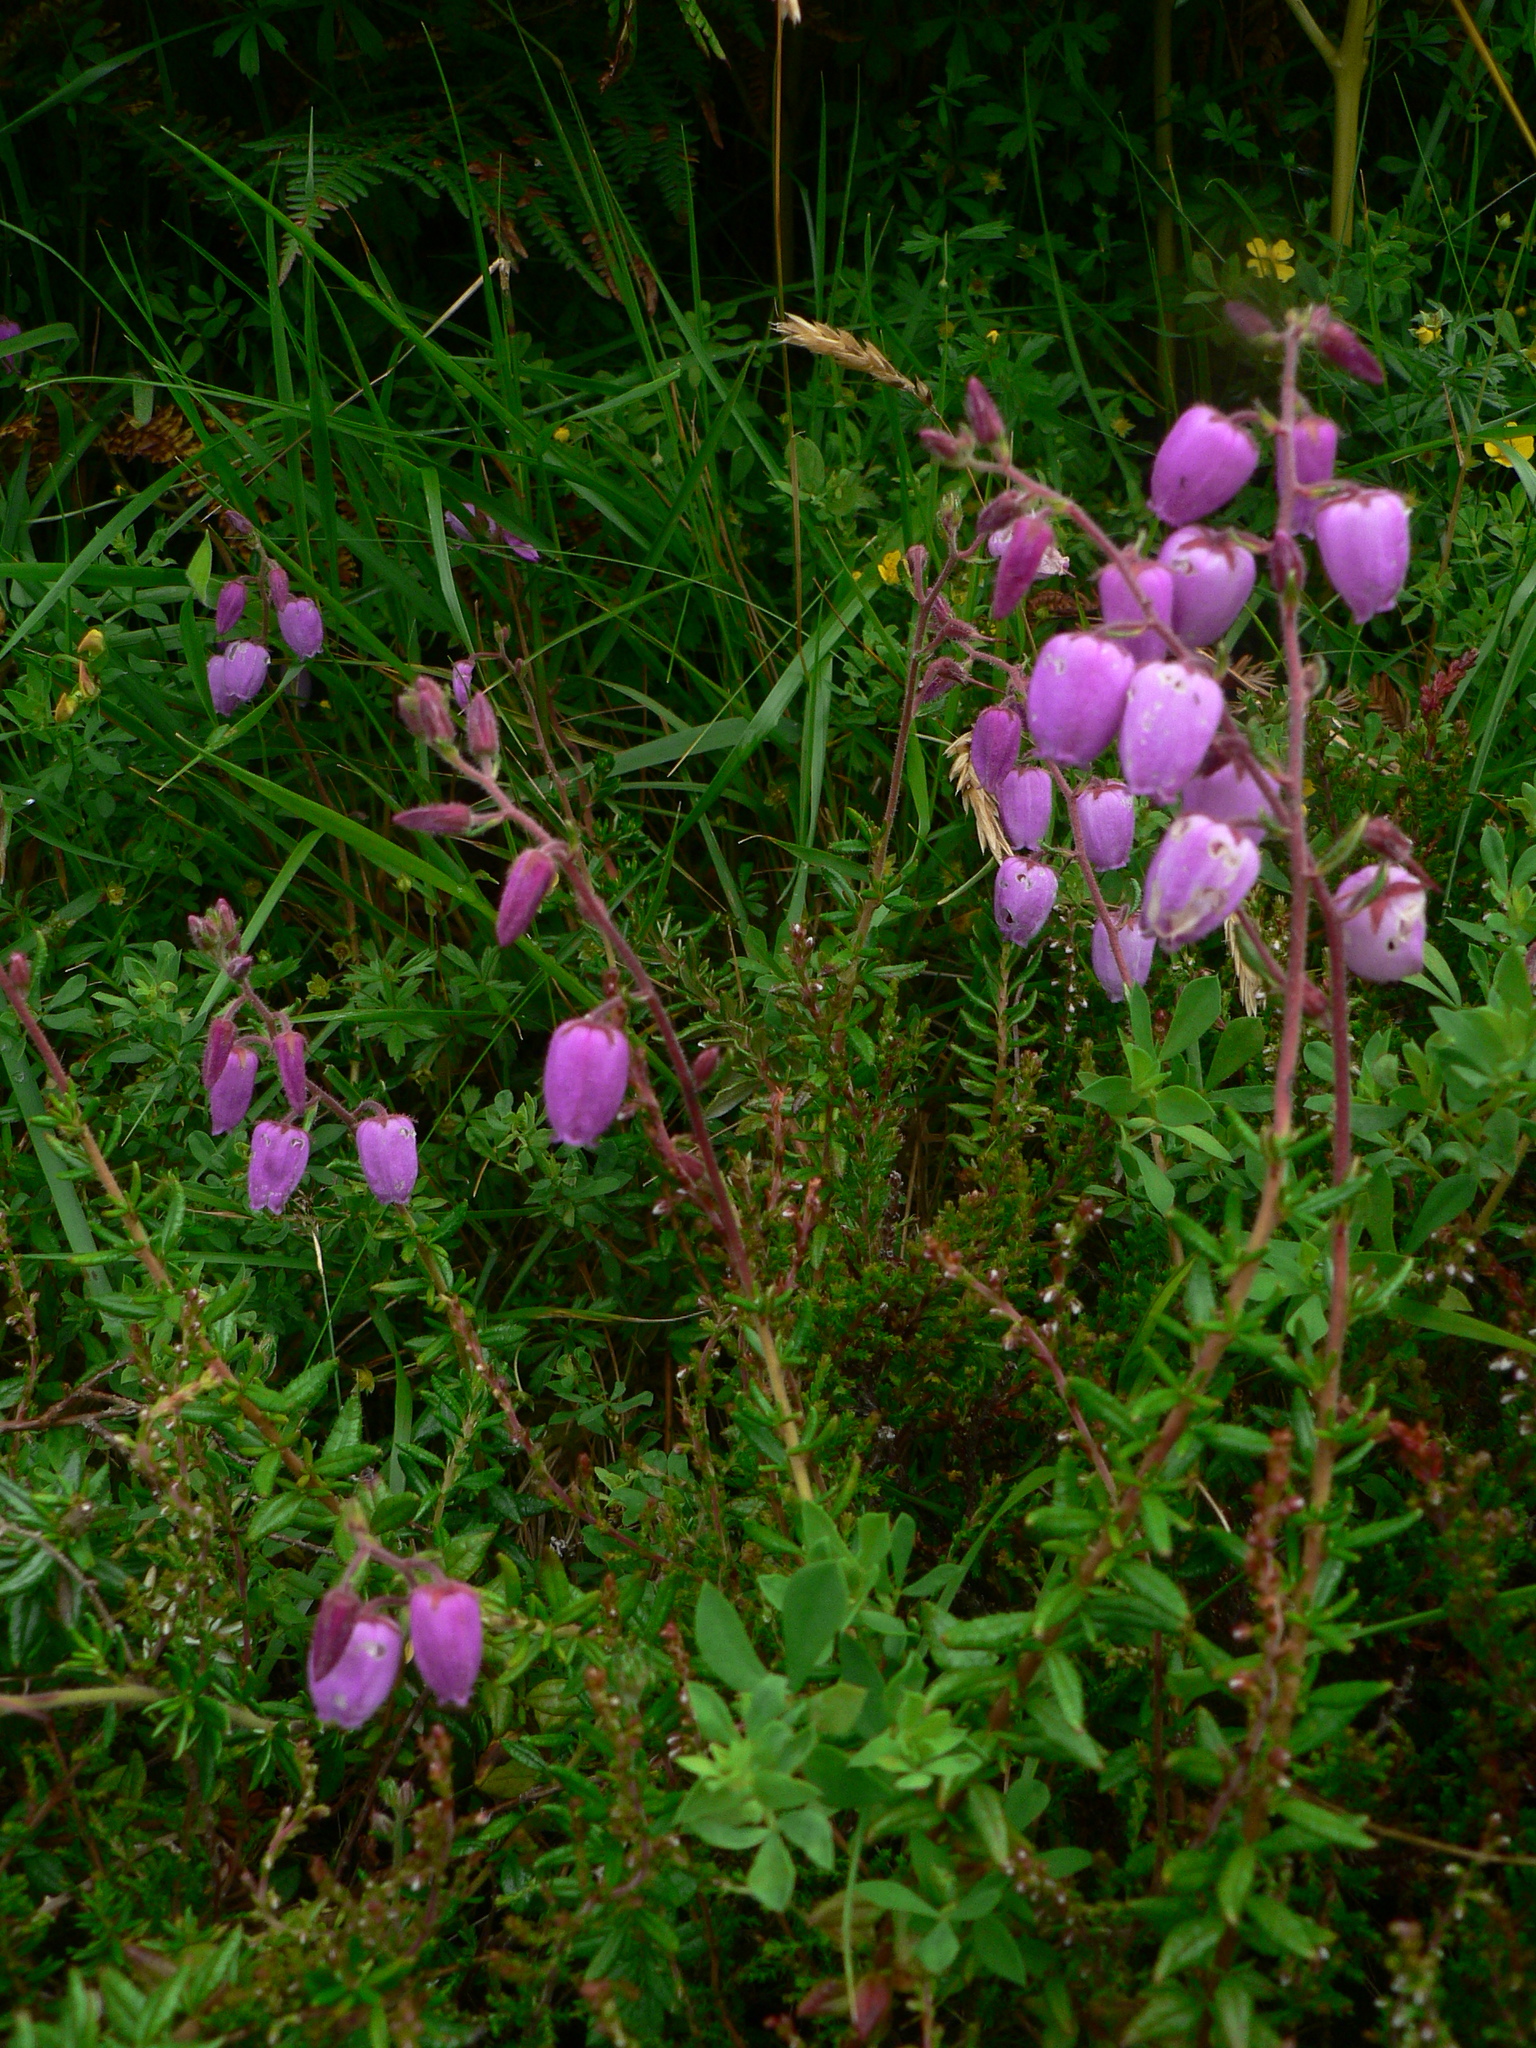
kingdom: Plantae
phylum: Tracheophyta
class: Magnoliopsida
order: Ericales
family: Ericaceae
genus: Daboecia
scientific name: Daboecia cantabrica
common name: St. dabeoc's-heath
